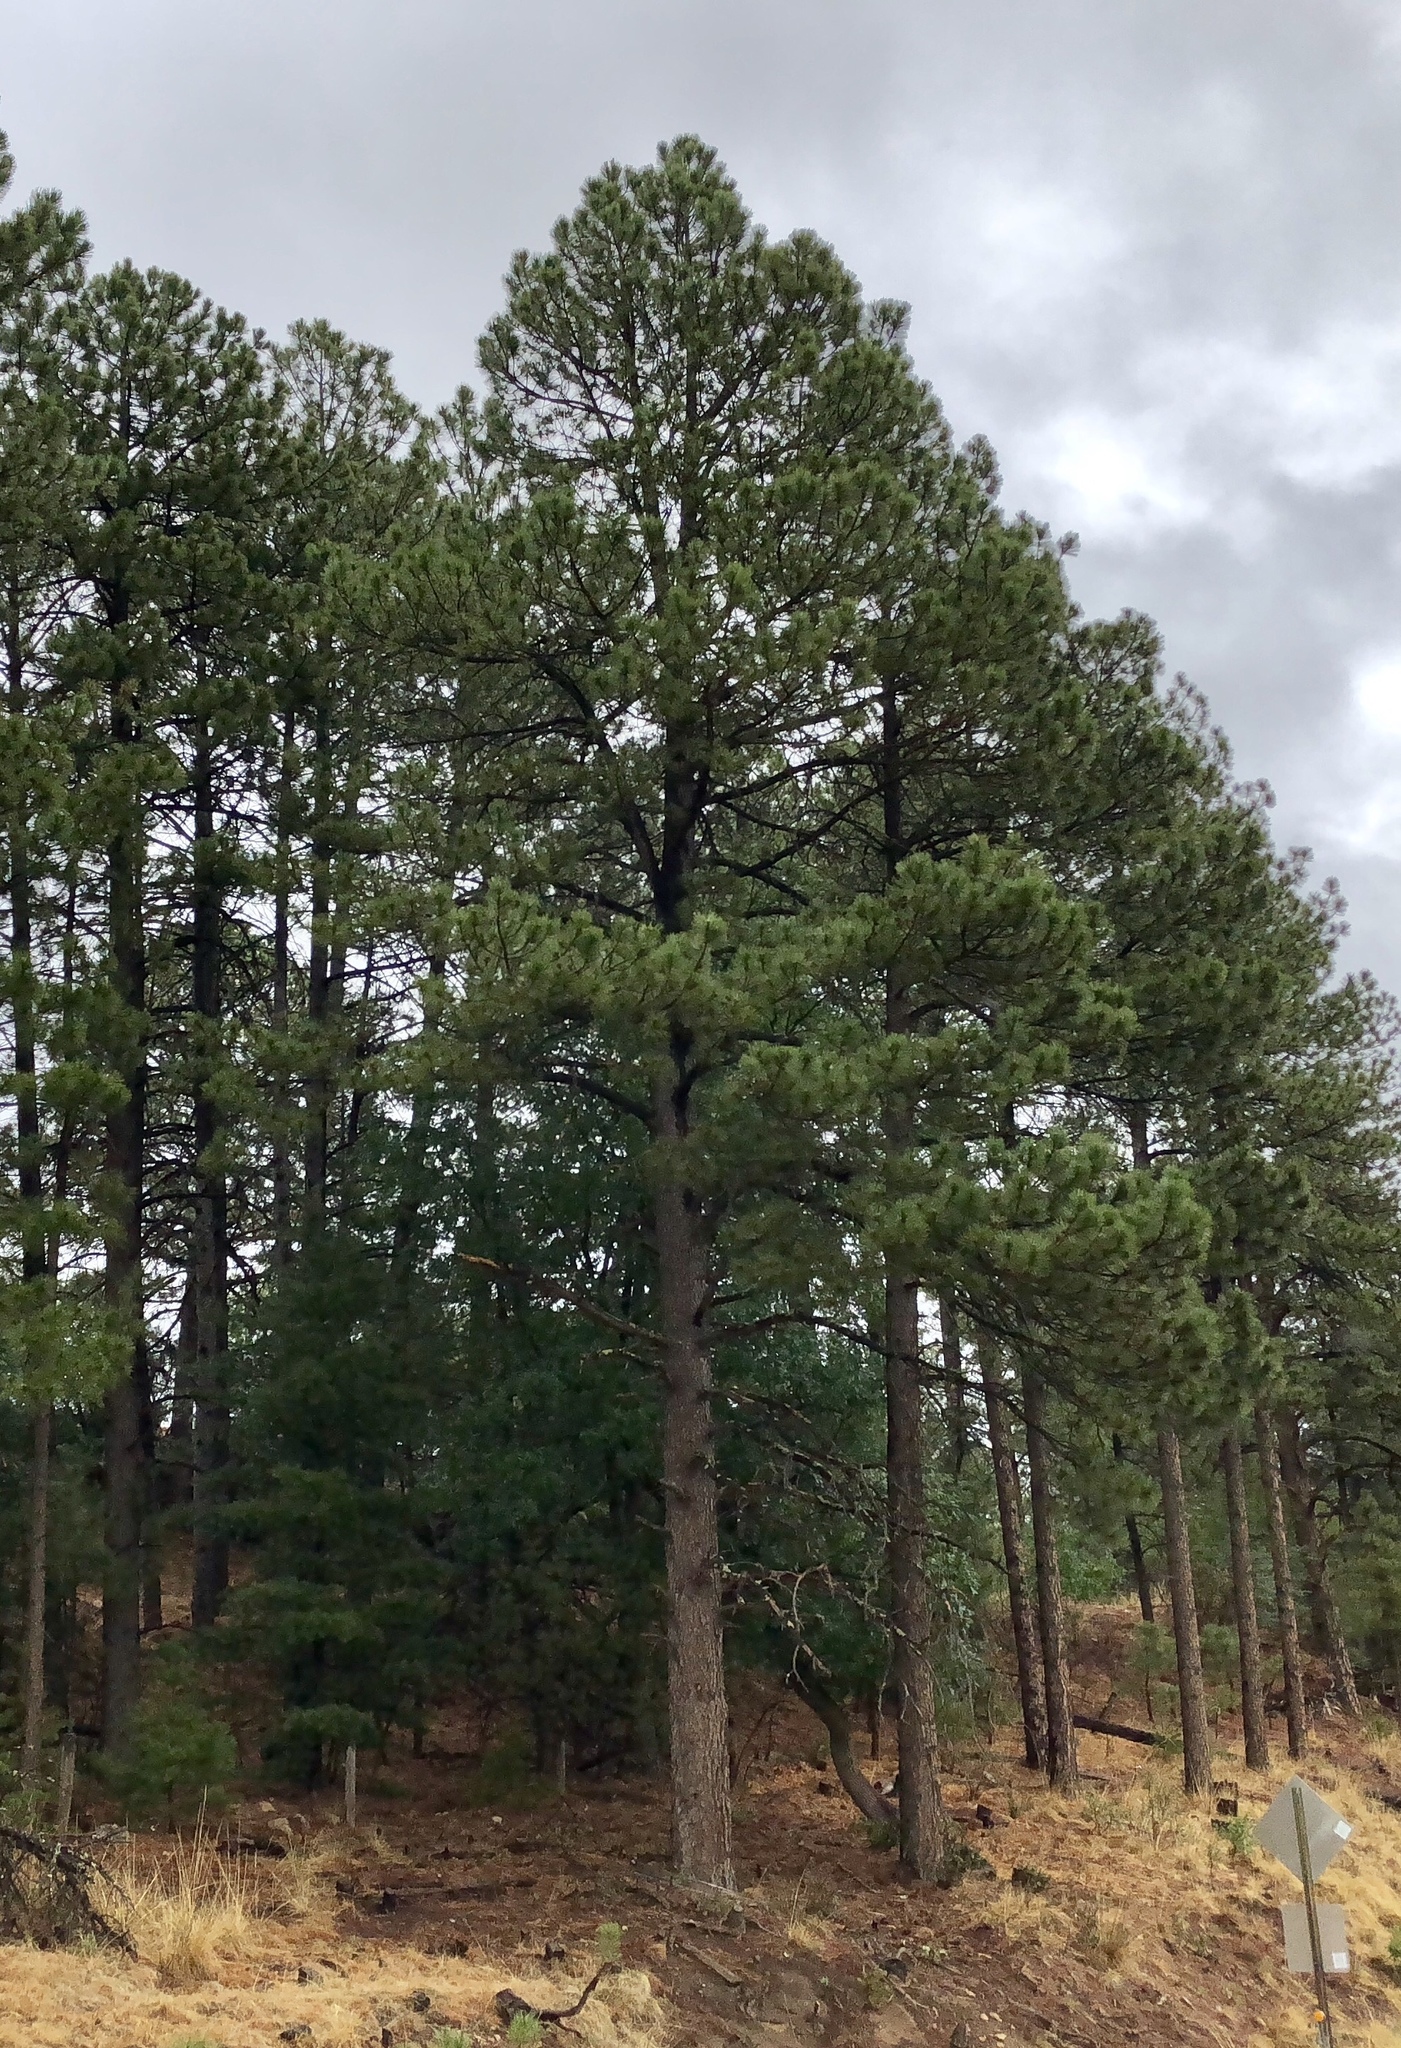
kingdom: Plantae
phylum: Tracheophyta
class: Pinopsida
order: Pinales
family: Pinaceae
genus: Pinus
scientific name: Pinus ponderosa
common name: Western yellow-pine
